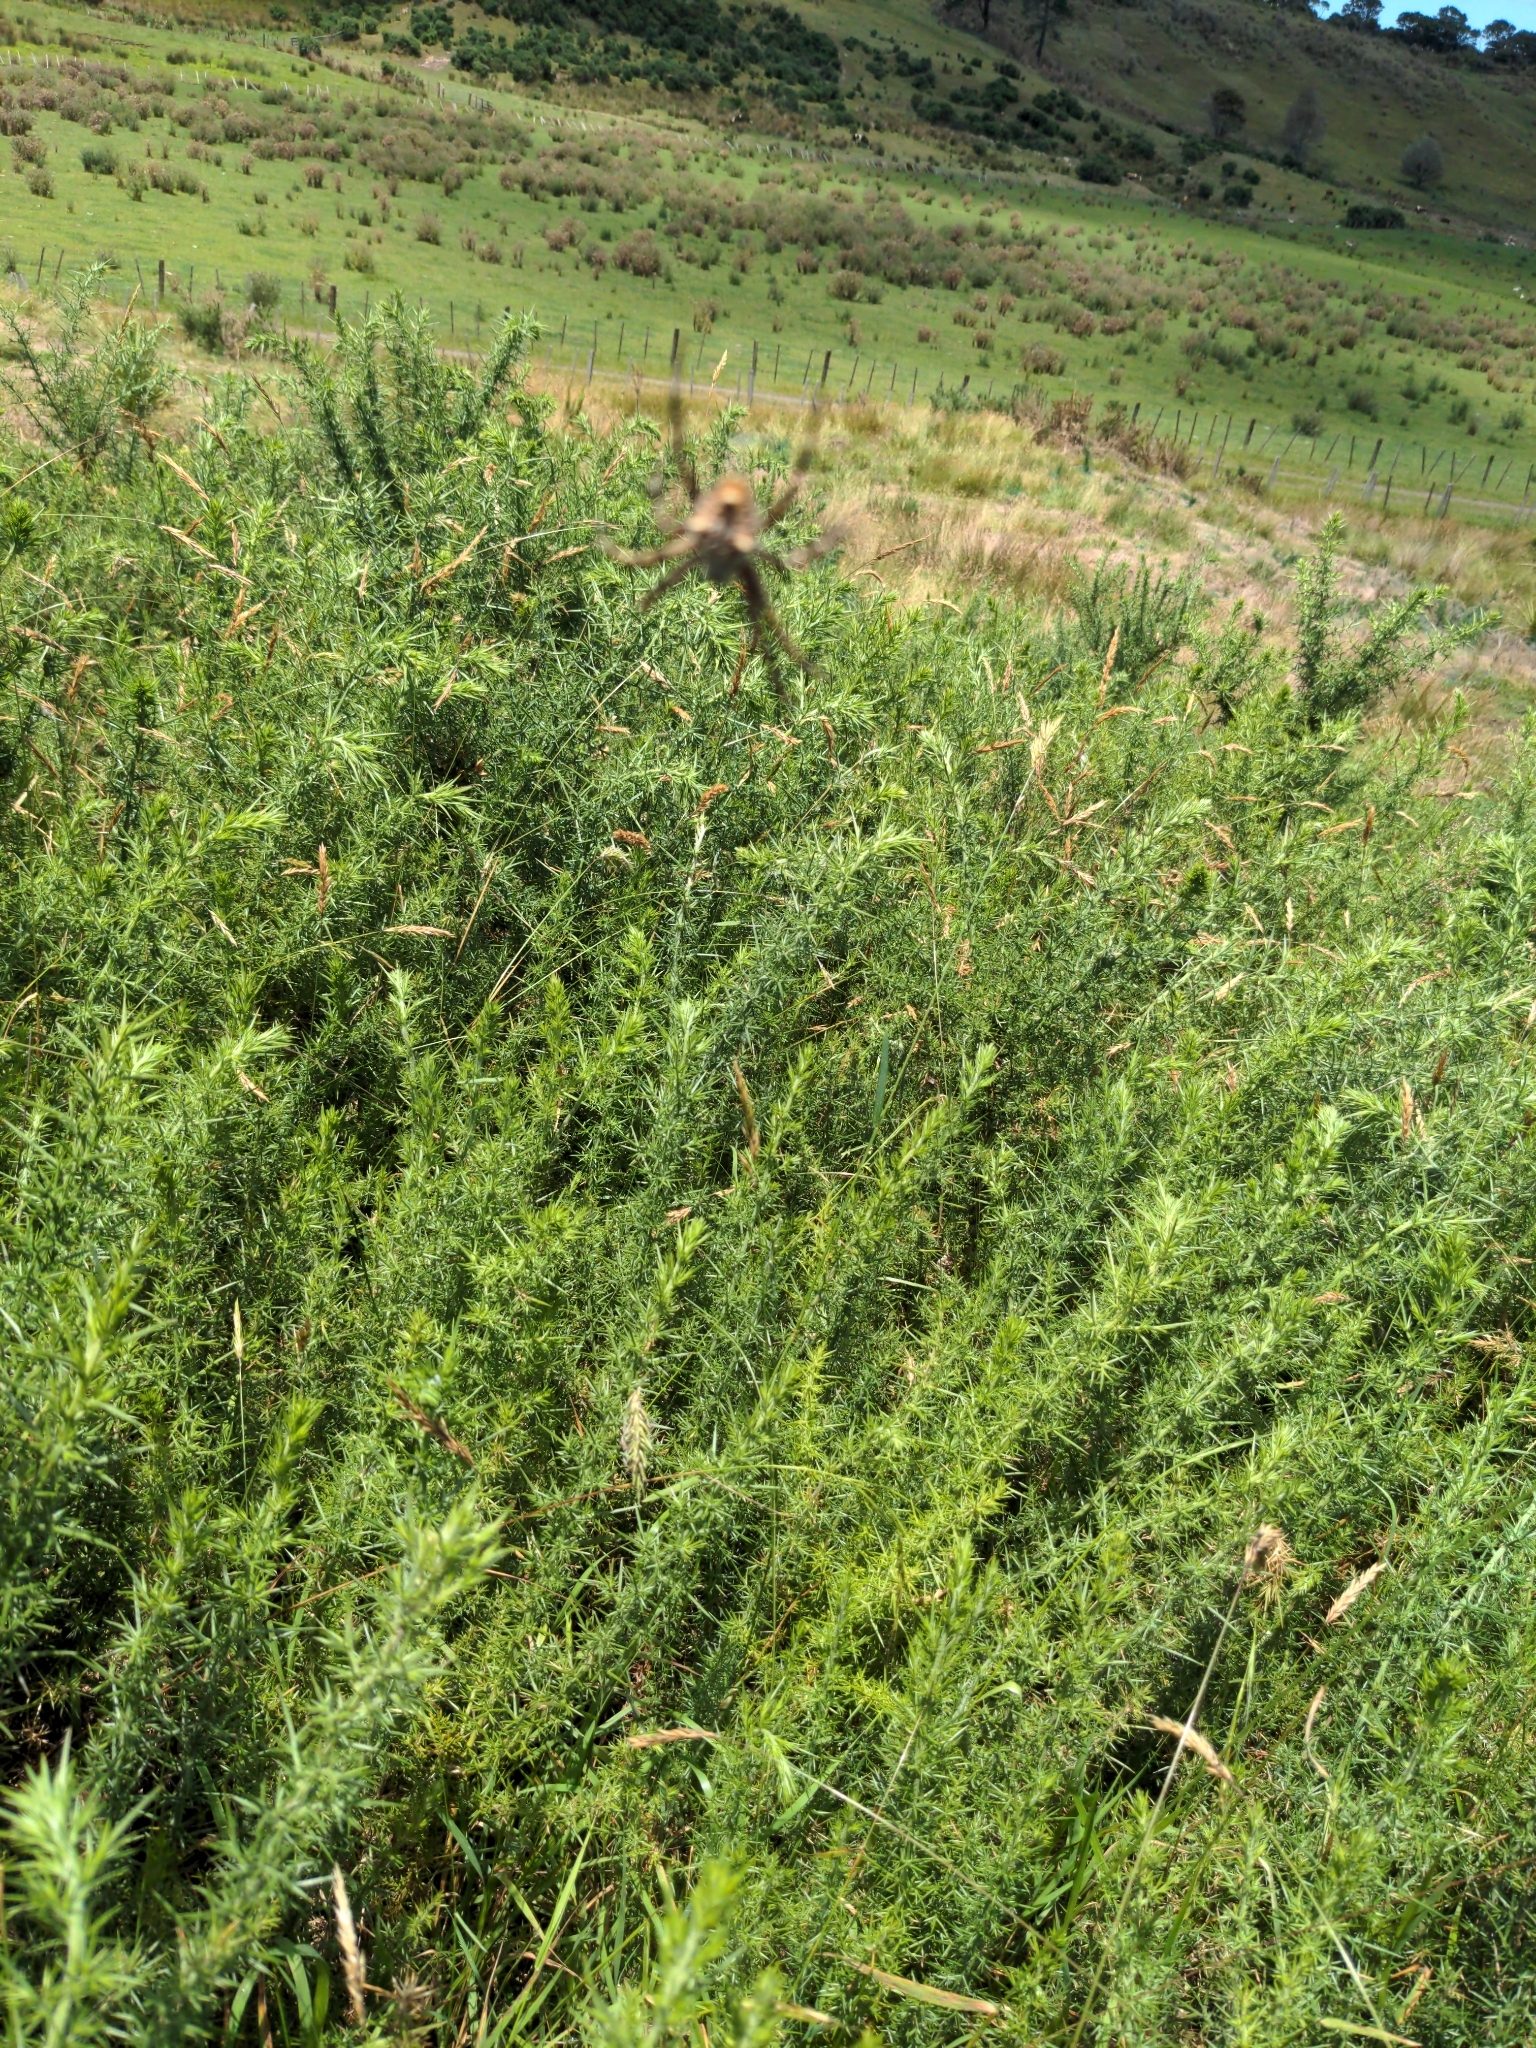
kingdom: Animalia
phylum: Arthropoda
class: Arachnida
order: Araneae
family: Araneidae
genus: Backobourkia
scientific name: Backobourkia brouni
